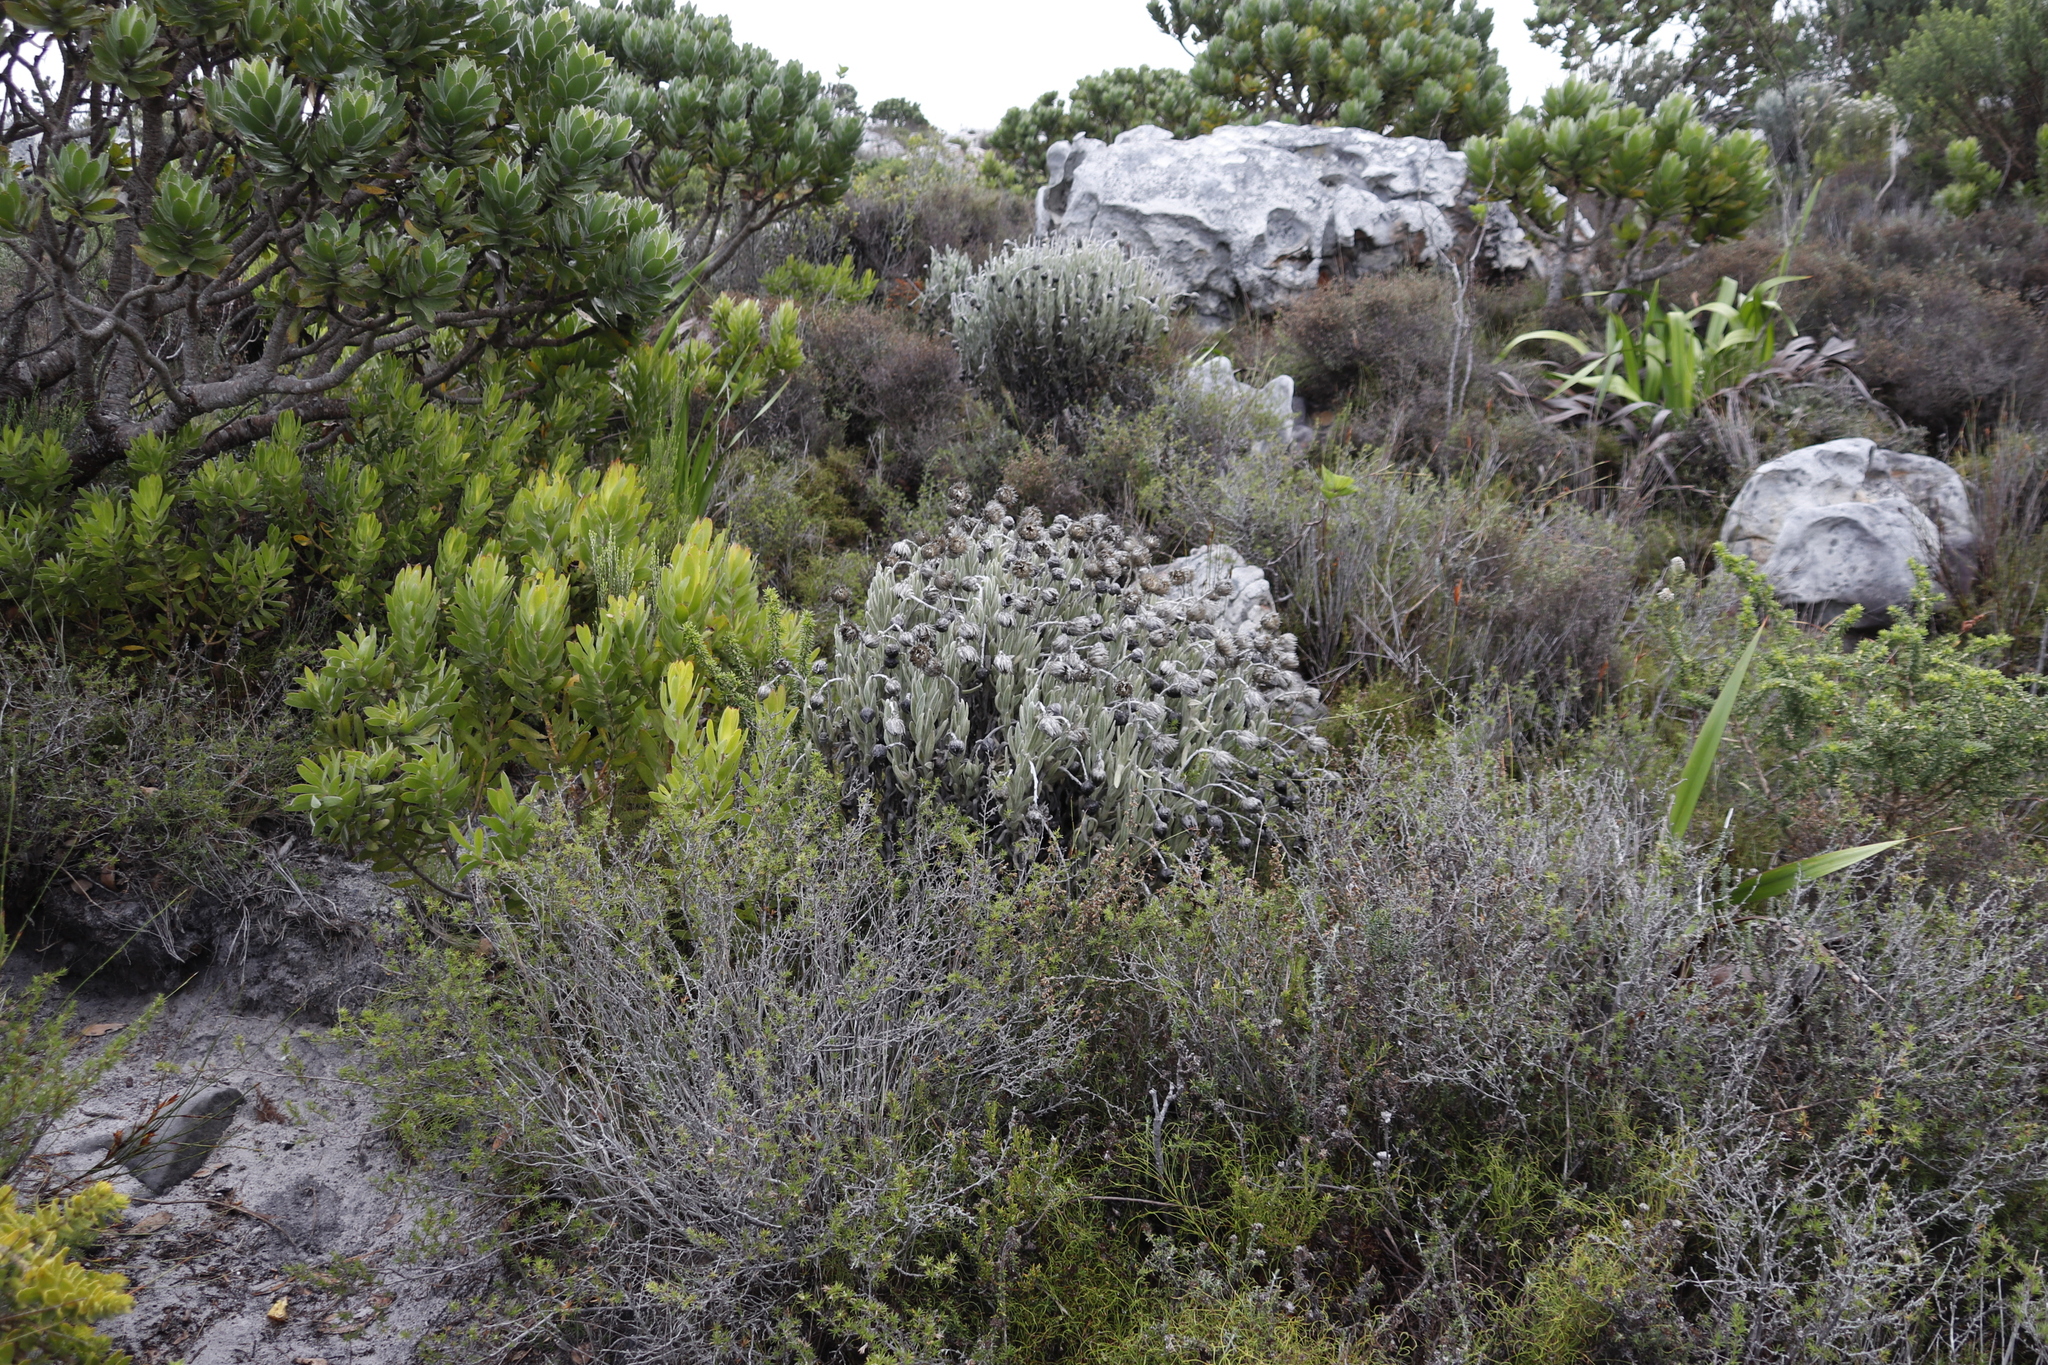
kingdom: Plantae
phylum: Tracheophyta
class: Magnoliopsida
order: Asterales
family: Asteraceae
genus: Syncarpha
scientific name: Syncarpha vestita
